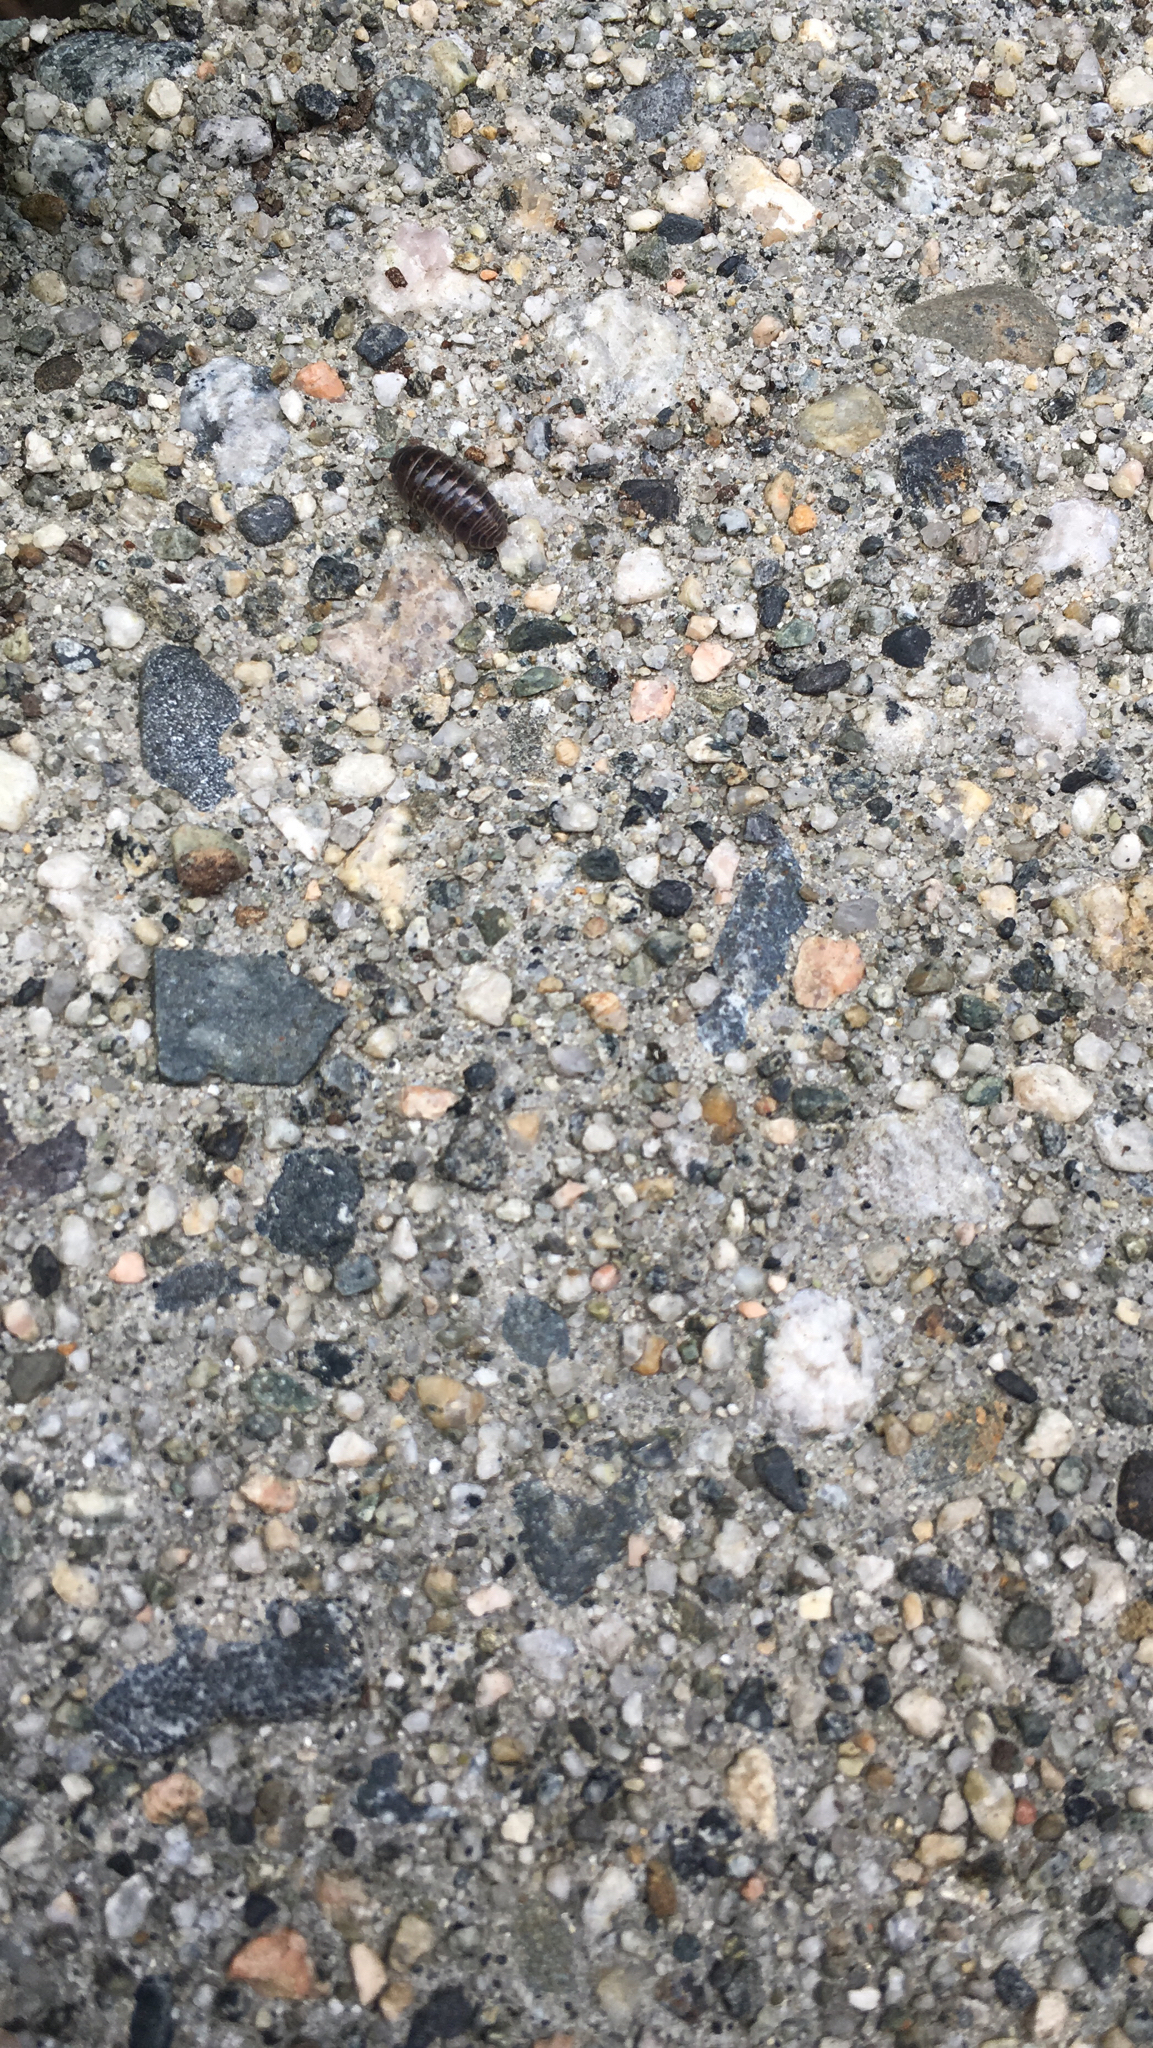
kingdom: Animalia
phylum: Arthropoda
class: Malacostraca
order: Isopoda
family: Armadillidiidae
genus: Armadillidium
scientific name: Armadillidium vulgare
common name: Common pill woodlouse
